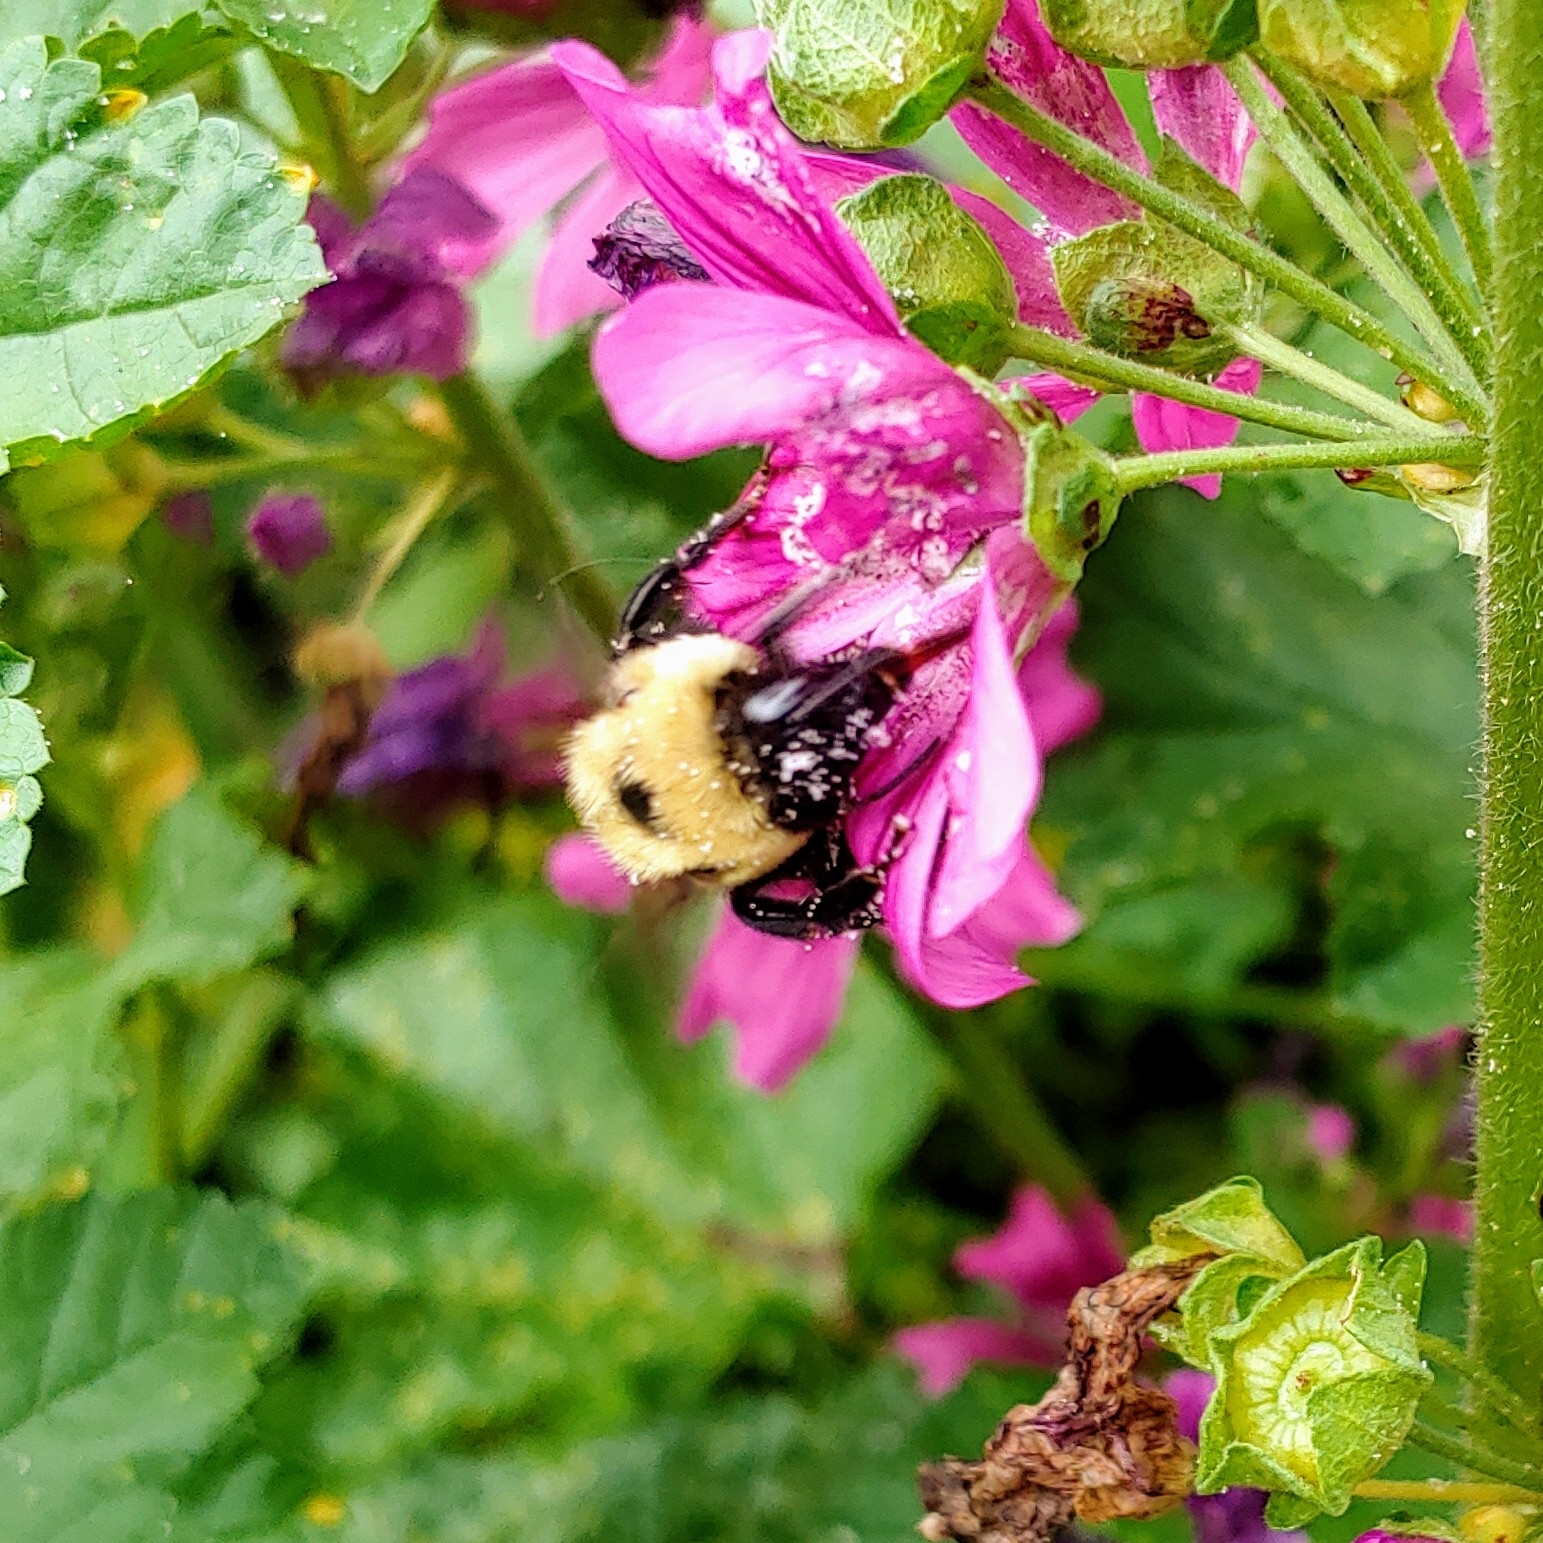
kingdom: Animalia
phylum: Arthropoda
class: Insecta
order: Hymenoptera
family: Apidae
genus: Bombus
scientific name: Bombus griseocollis
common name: Brown-belted bumble bee
